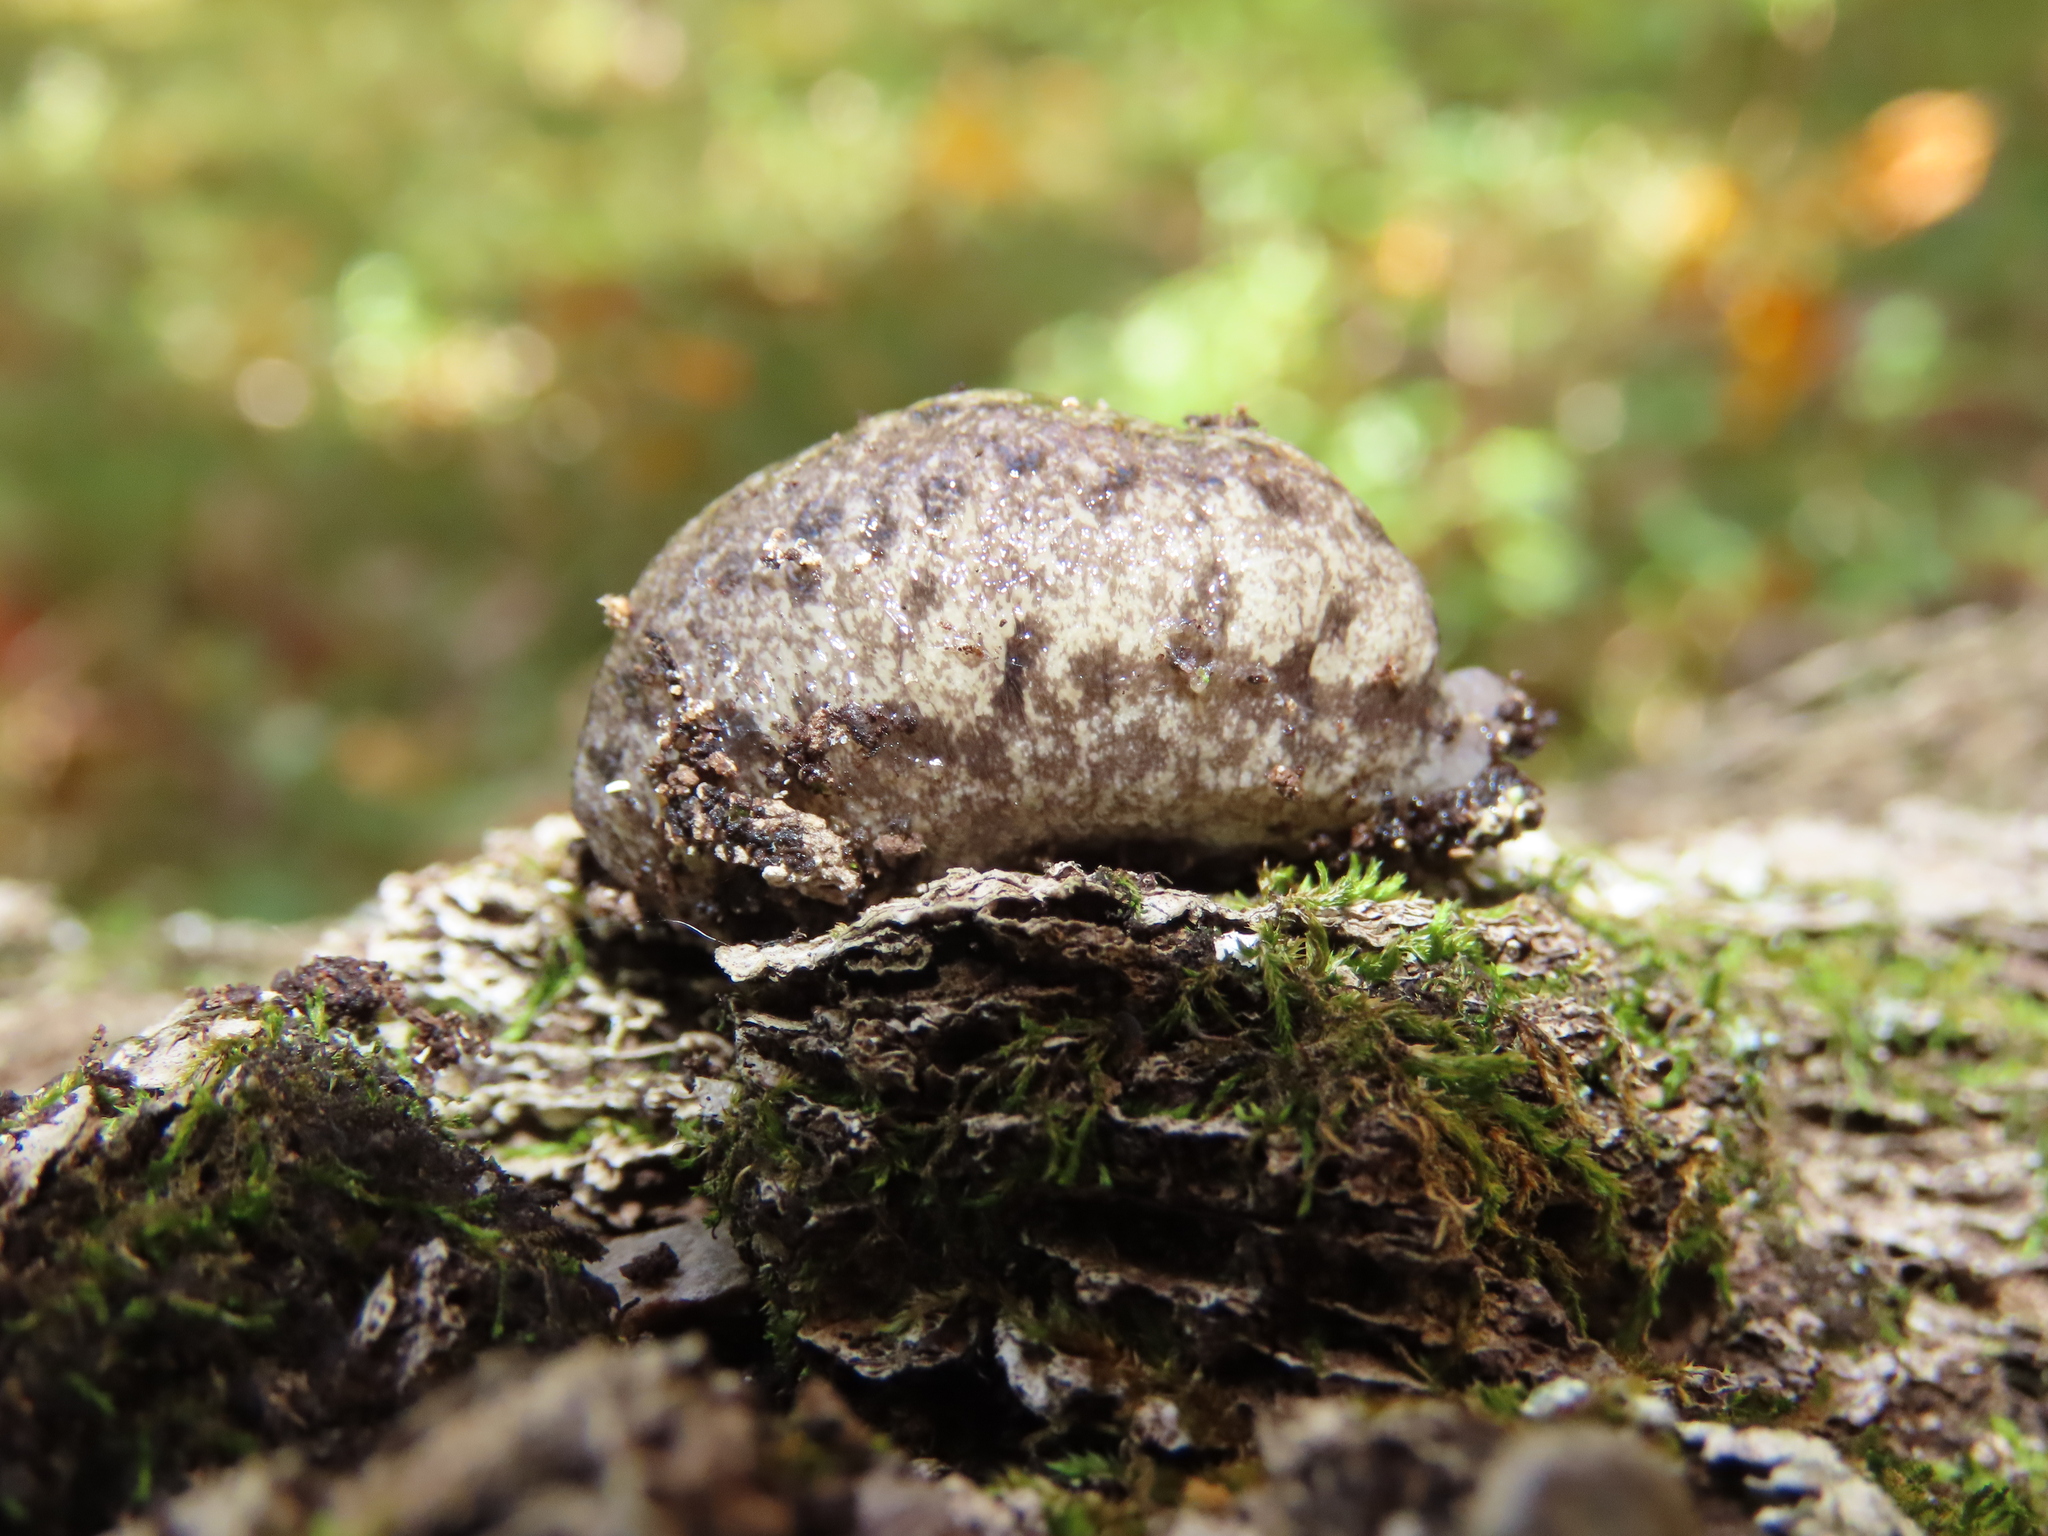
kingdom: Animalia
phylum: Mollusca
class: Gastropoda
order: Stylommatophora
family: Philomycidae
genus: Megapallifera
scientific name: Megapallifera mutabilis
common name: Changeable mantleslug
